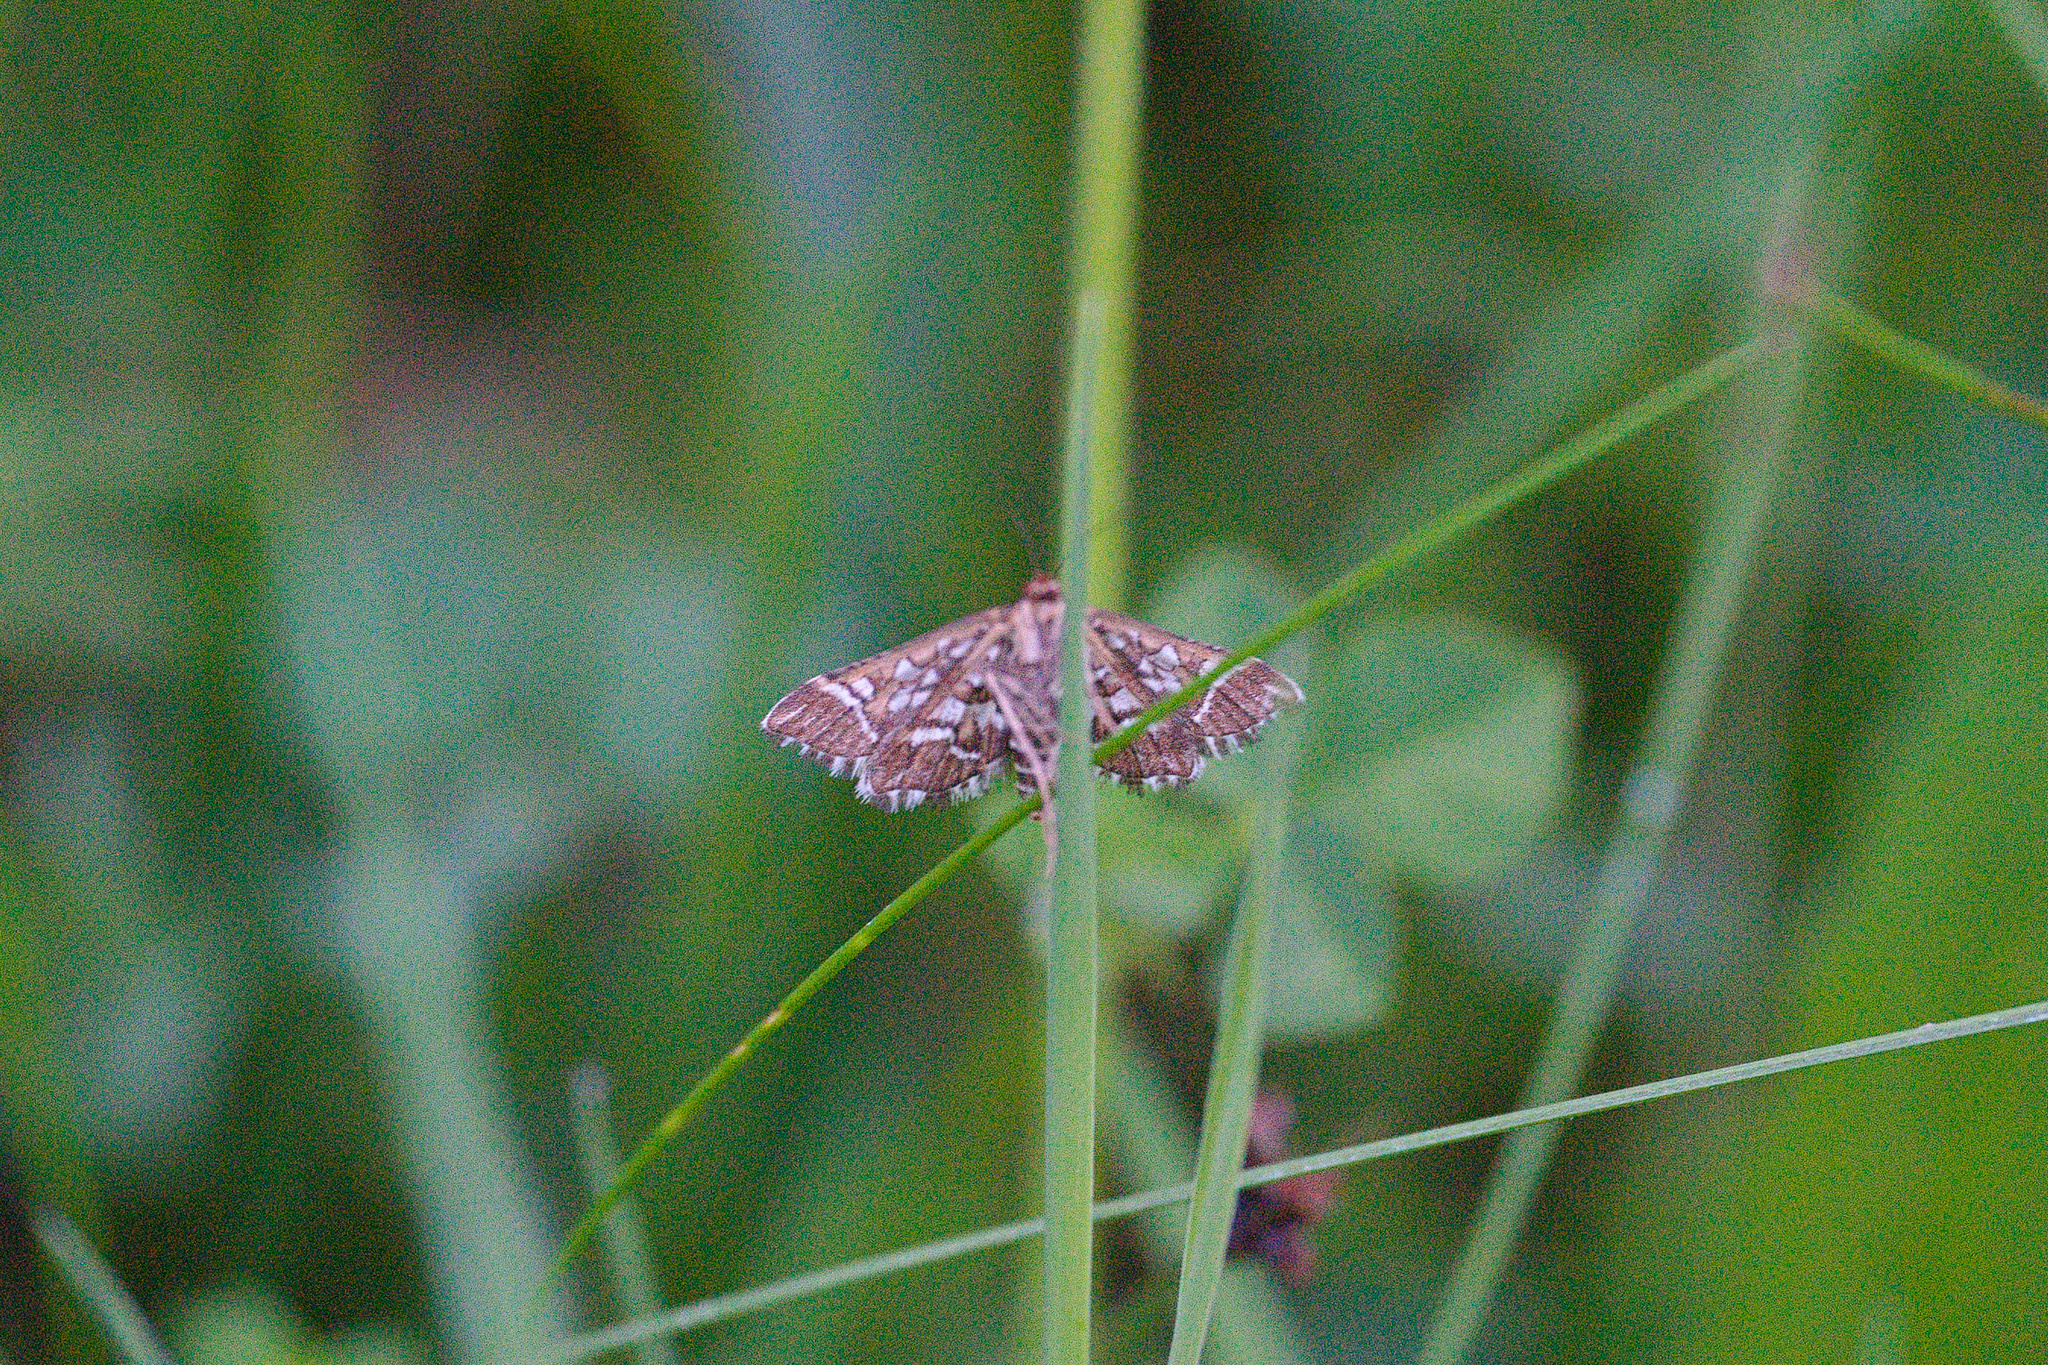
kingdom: Animalia
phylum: Arthropoda
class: Insecta
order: Lepidoptera
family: Crambidae
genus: Diasemia
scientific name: Diasemia reticularis
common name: Lettered china-mark
